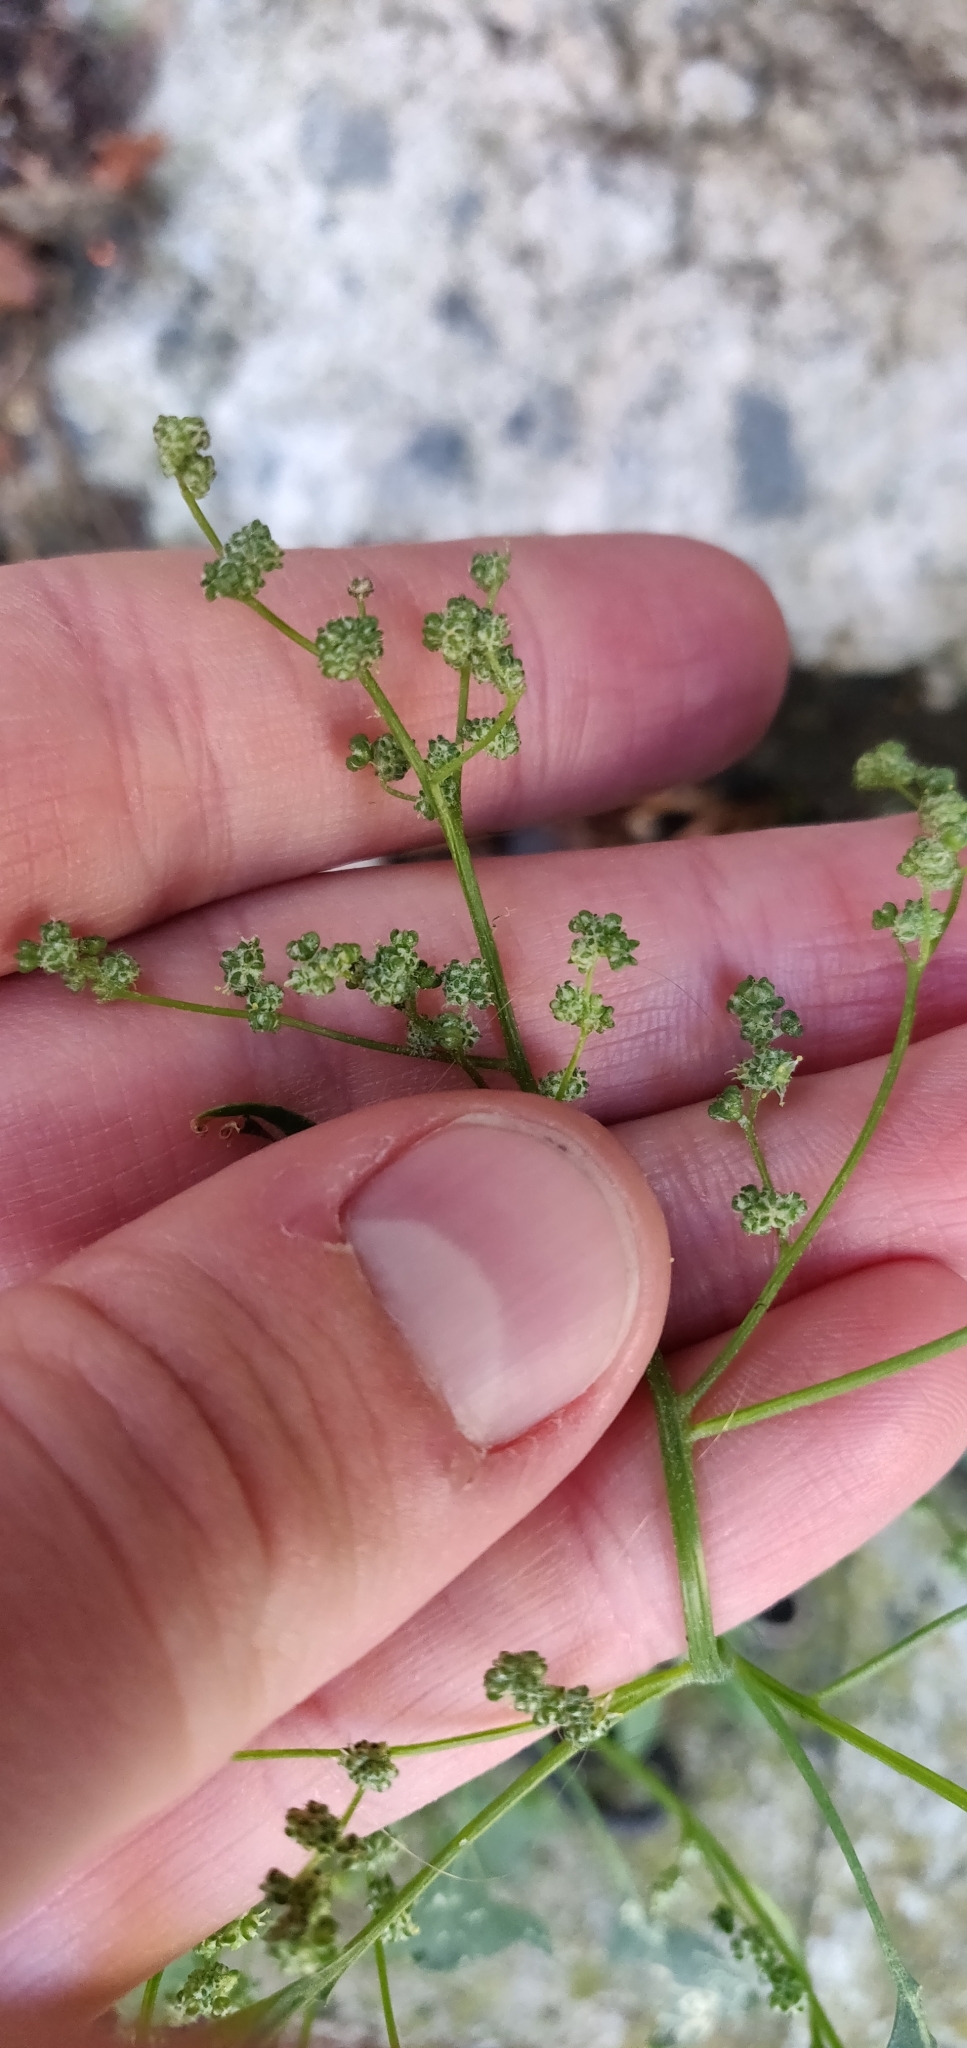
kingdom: Plantae
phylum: Tracheophyta
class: Magnoliopsida
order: Caryophyllales
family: Amaranthaceae
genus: Chenopodium
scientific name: Chenopodium album
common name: Fat-hen
